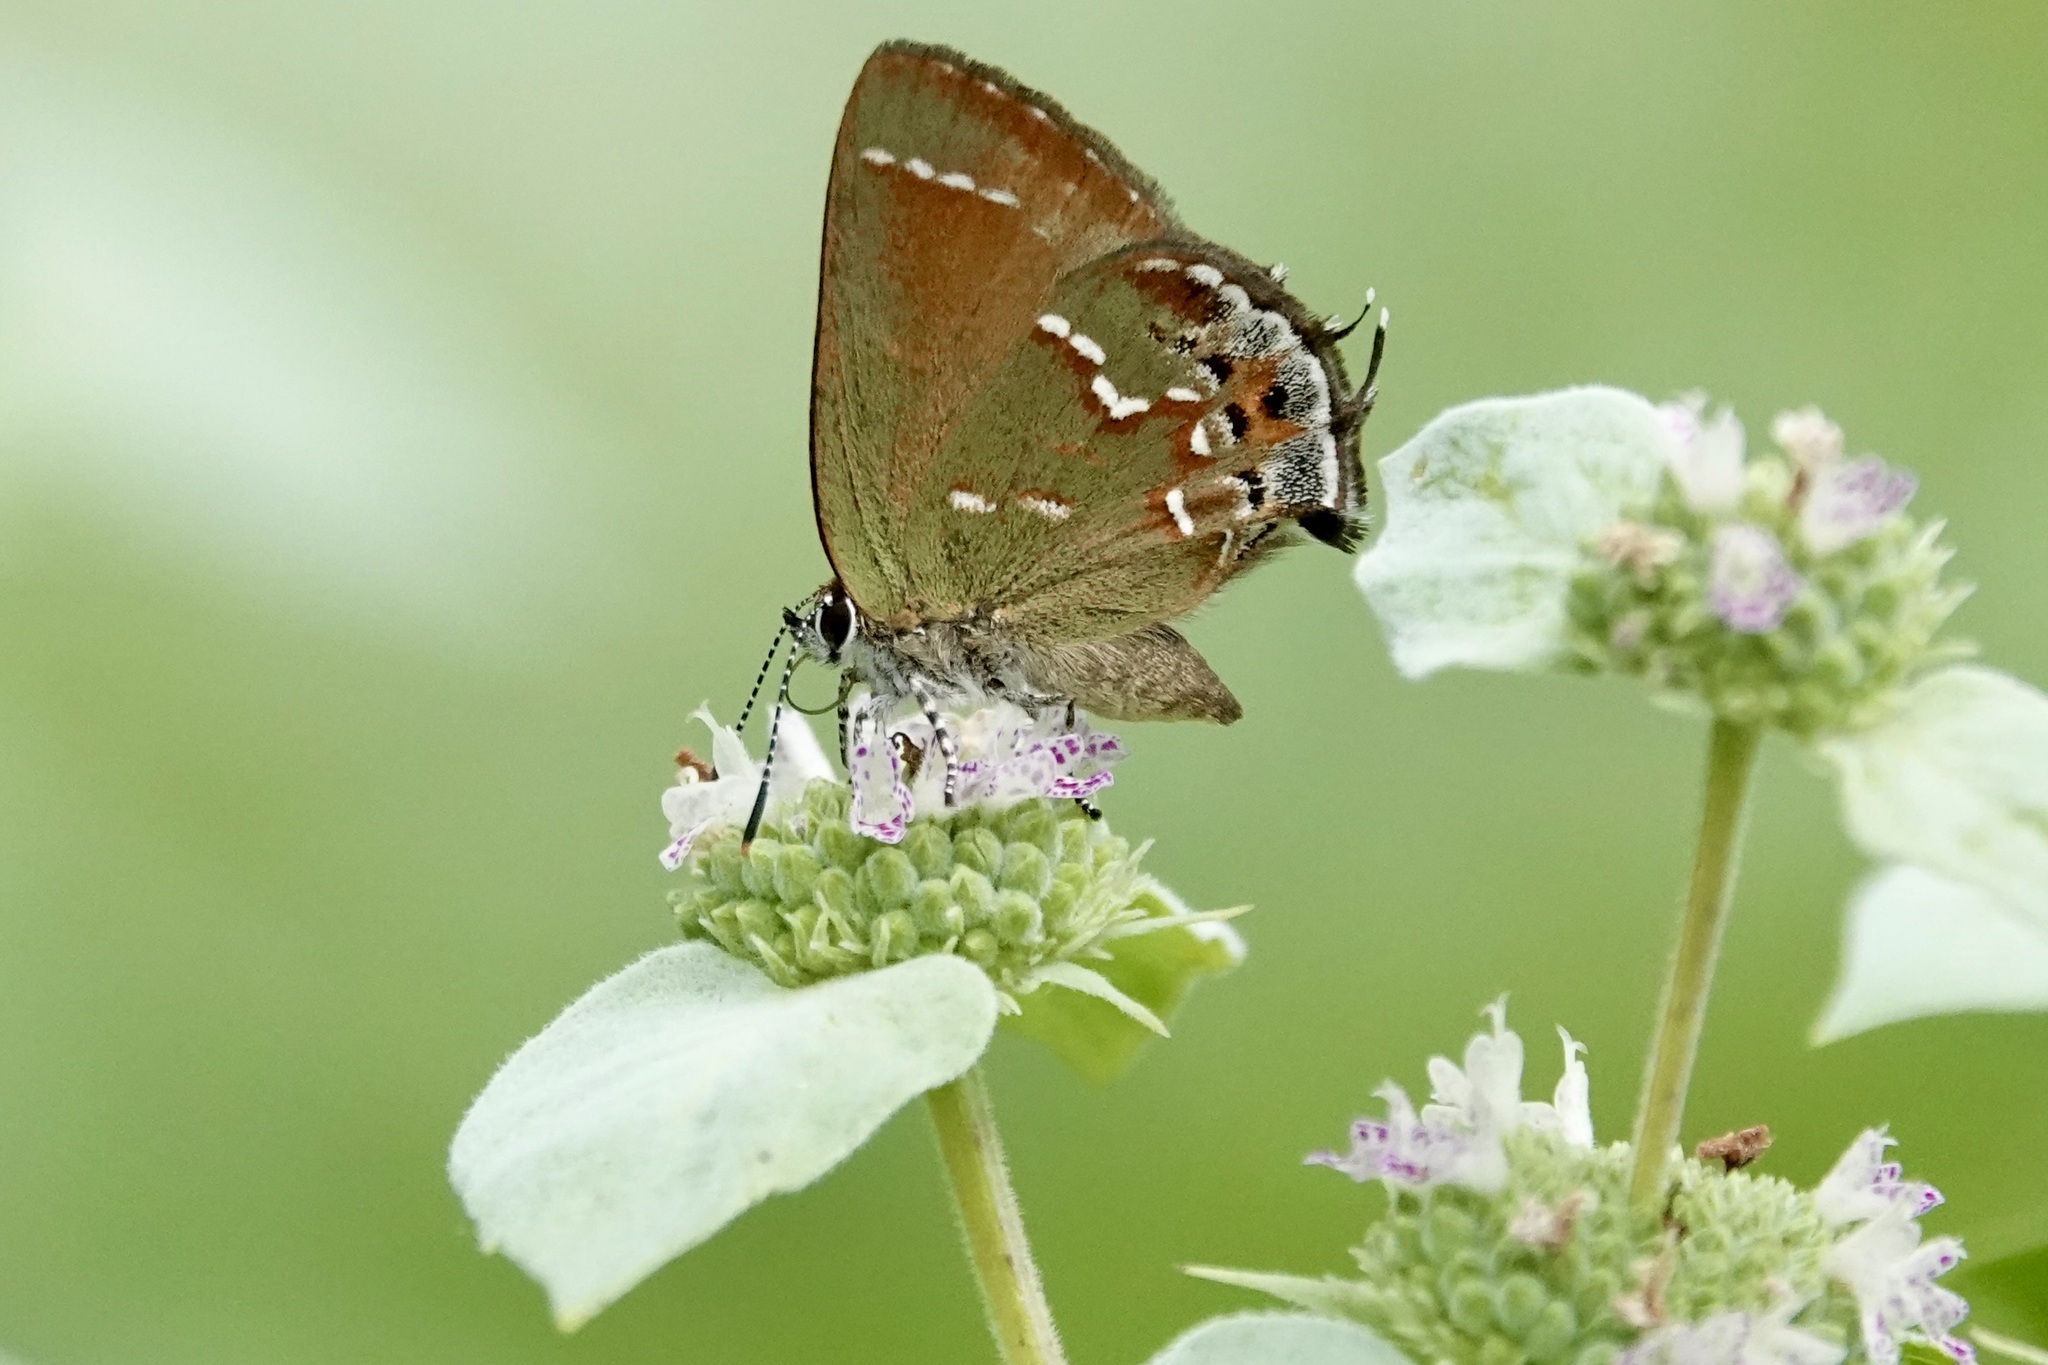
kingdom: Animalia
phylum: Arthropoda
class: Insecta
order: Lepidoptera
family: Lycaenidae
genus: Mitoura
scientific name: Mitoura gryneus
